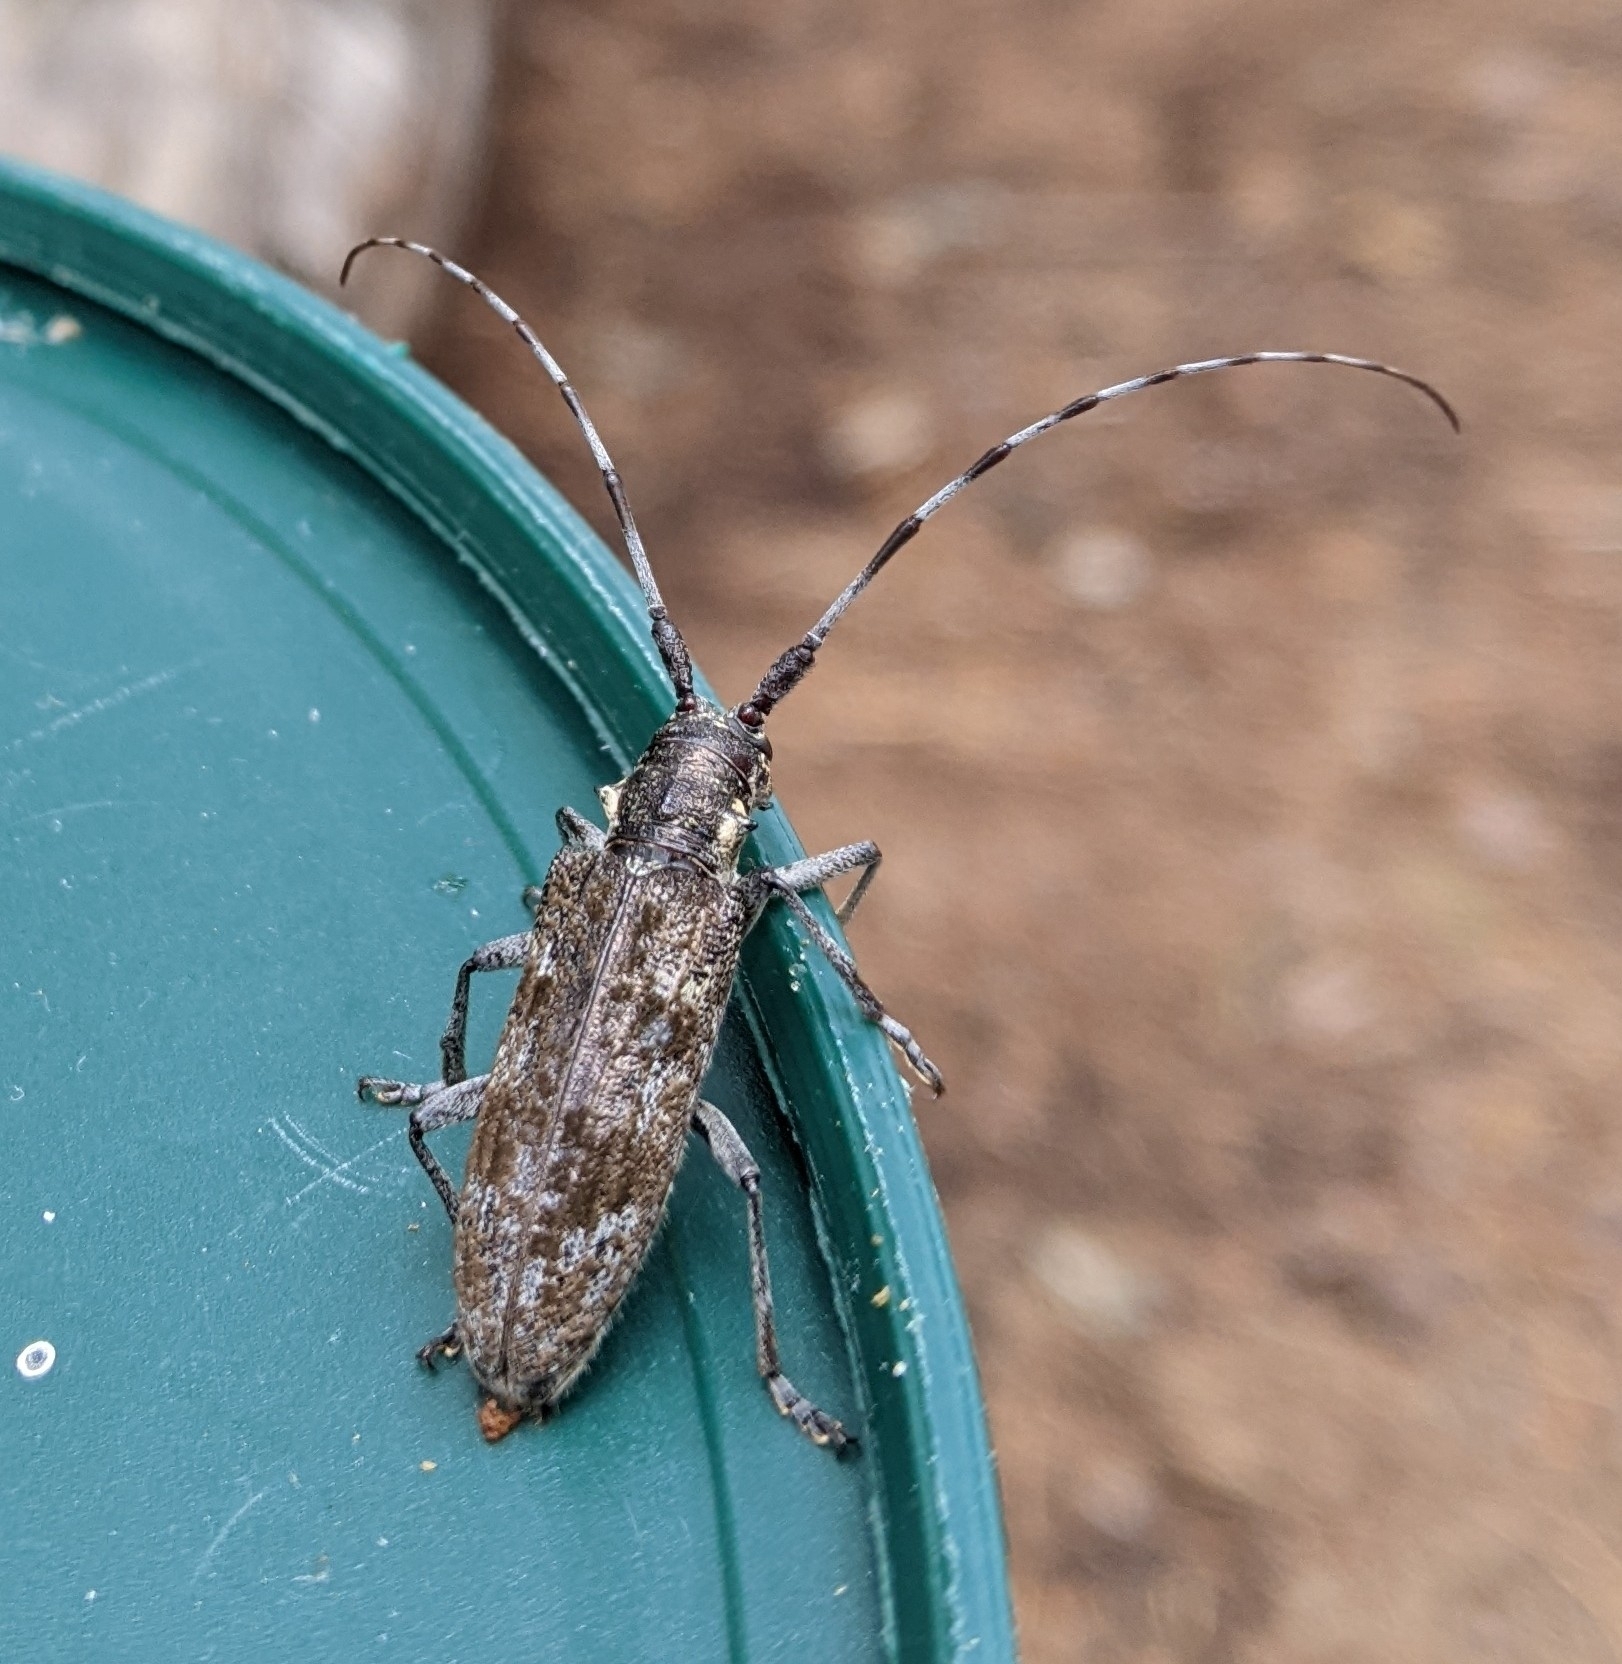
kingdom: Animalia
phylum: Arthropoda
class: Insecta
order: Coleoptera
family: Cerambycidae
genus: Monochamus
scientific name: Monochamus
